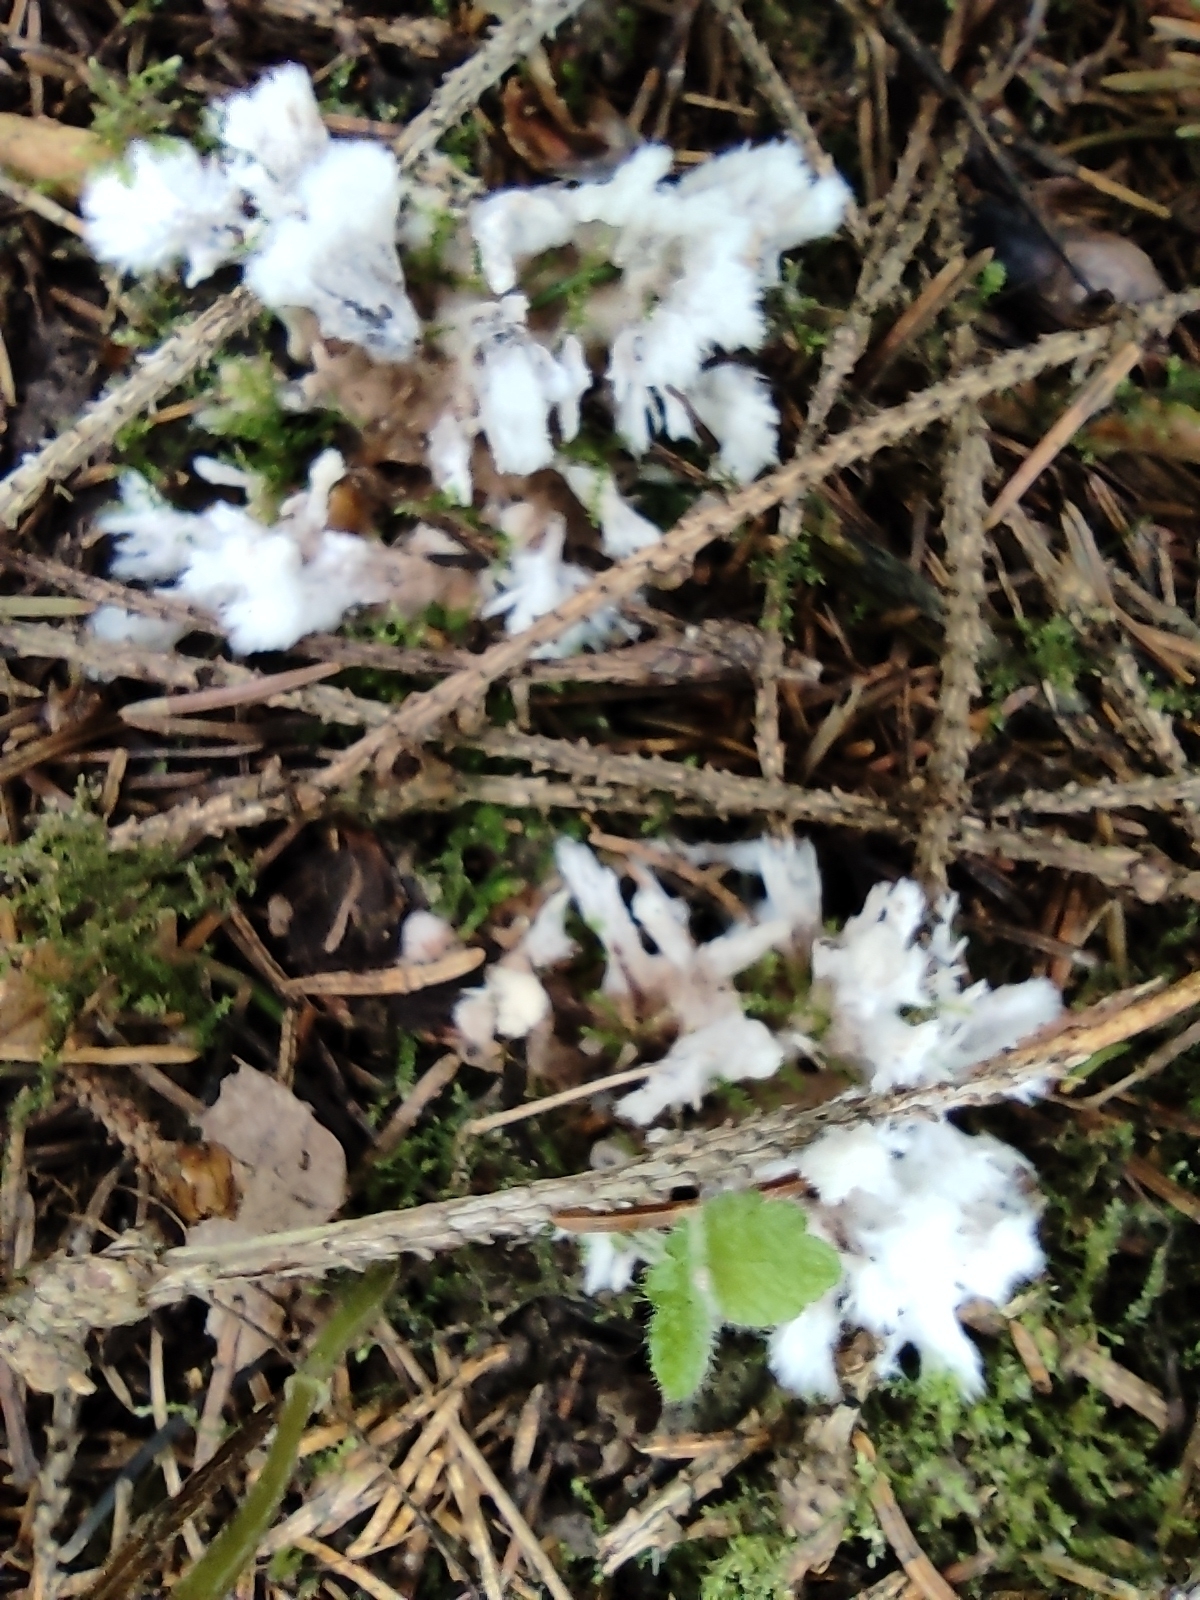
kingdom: Fungi
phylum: Basidiomycota
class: Agaricomycetes
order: Sebacinales
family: Sebacinaceae
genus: Sebacina
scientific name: Sebacina incrustans
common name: Enveloping crust
